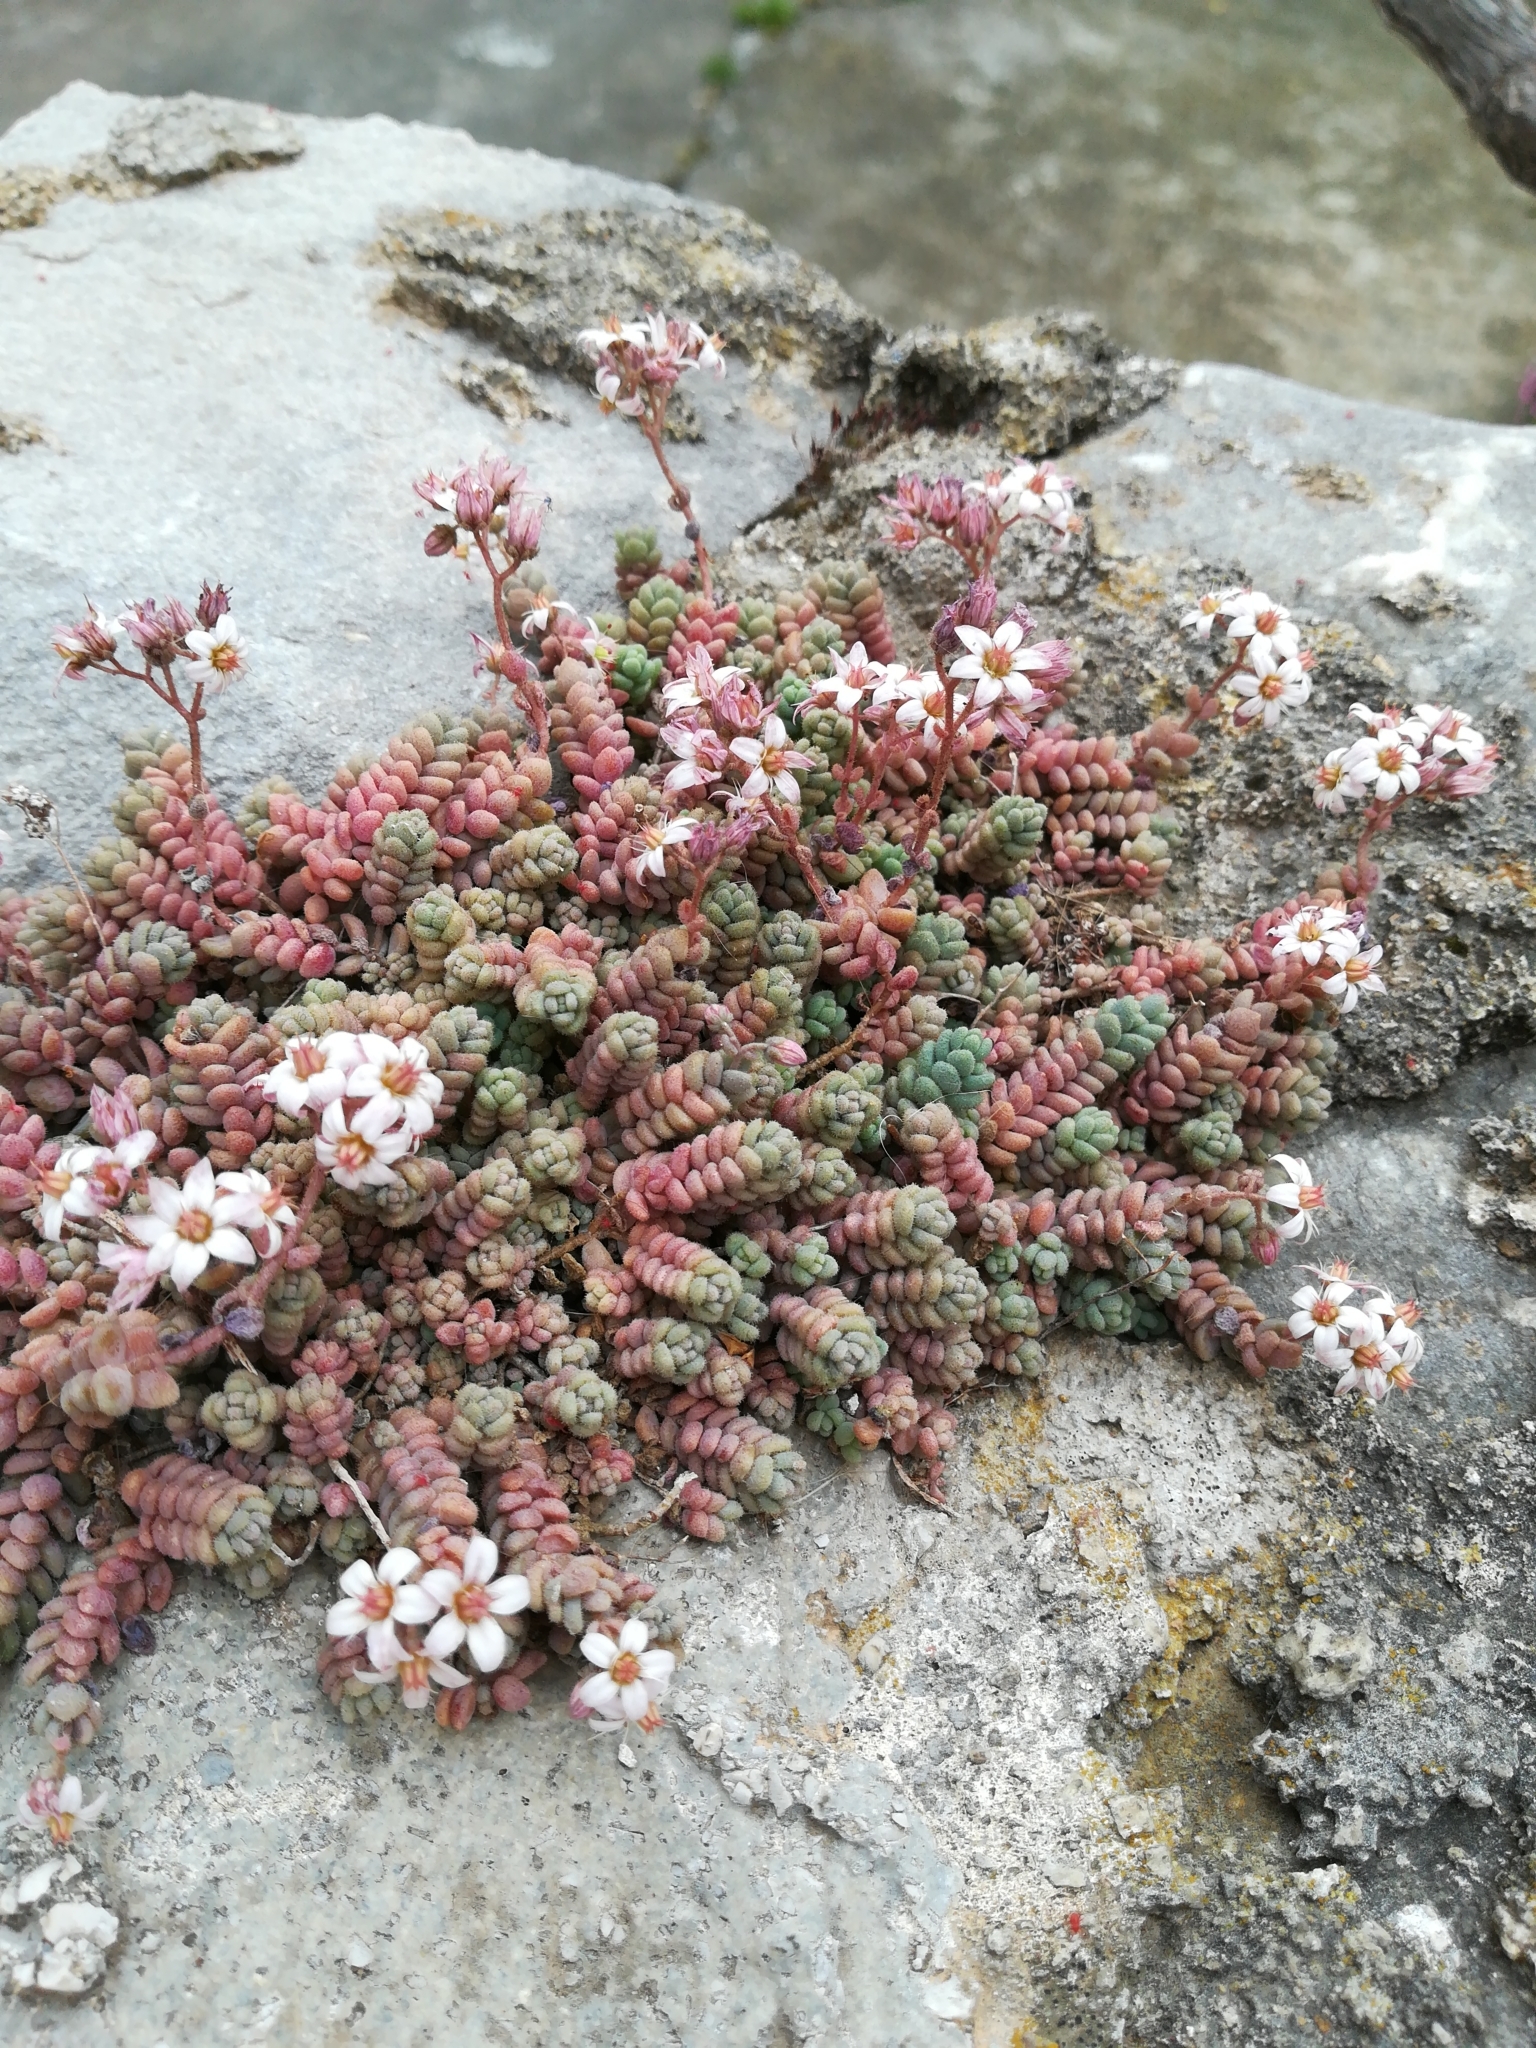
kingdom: Plantae
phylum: Tracheophyta
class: Magnoliopsida
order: Saxifragales
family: Crassulaceae
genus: Sedum
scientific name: Sedum dasyphyllum
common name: Thick-leaf stonecrop
